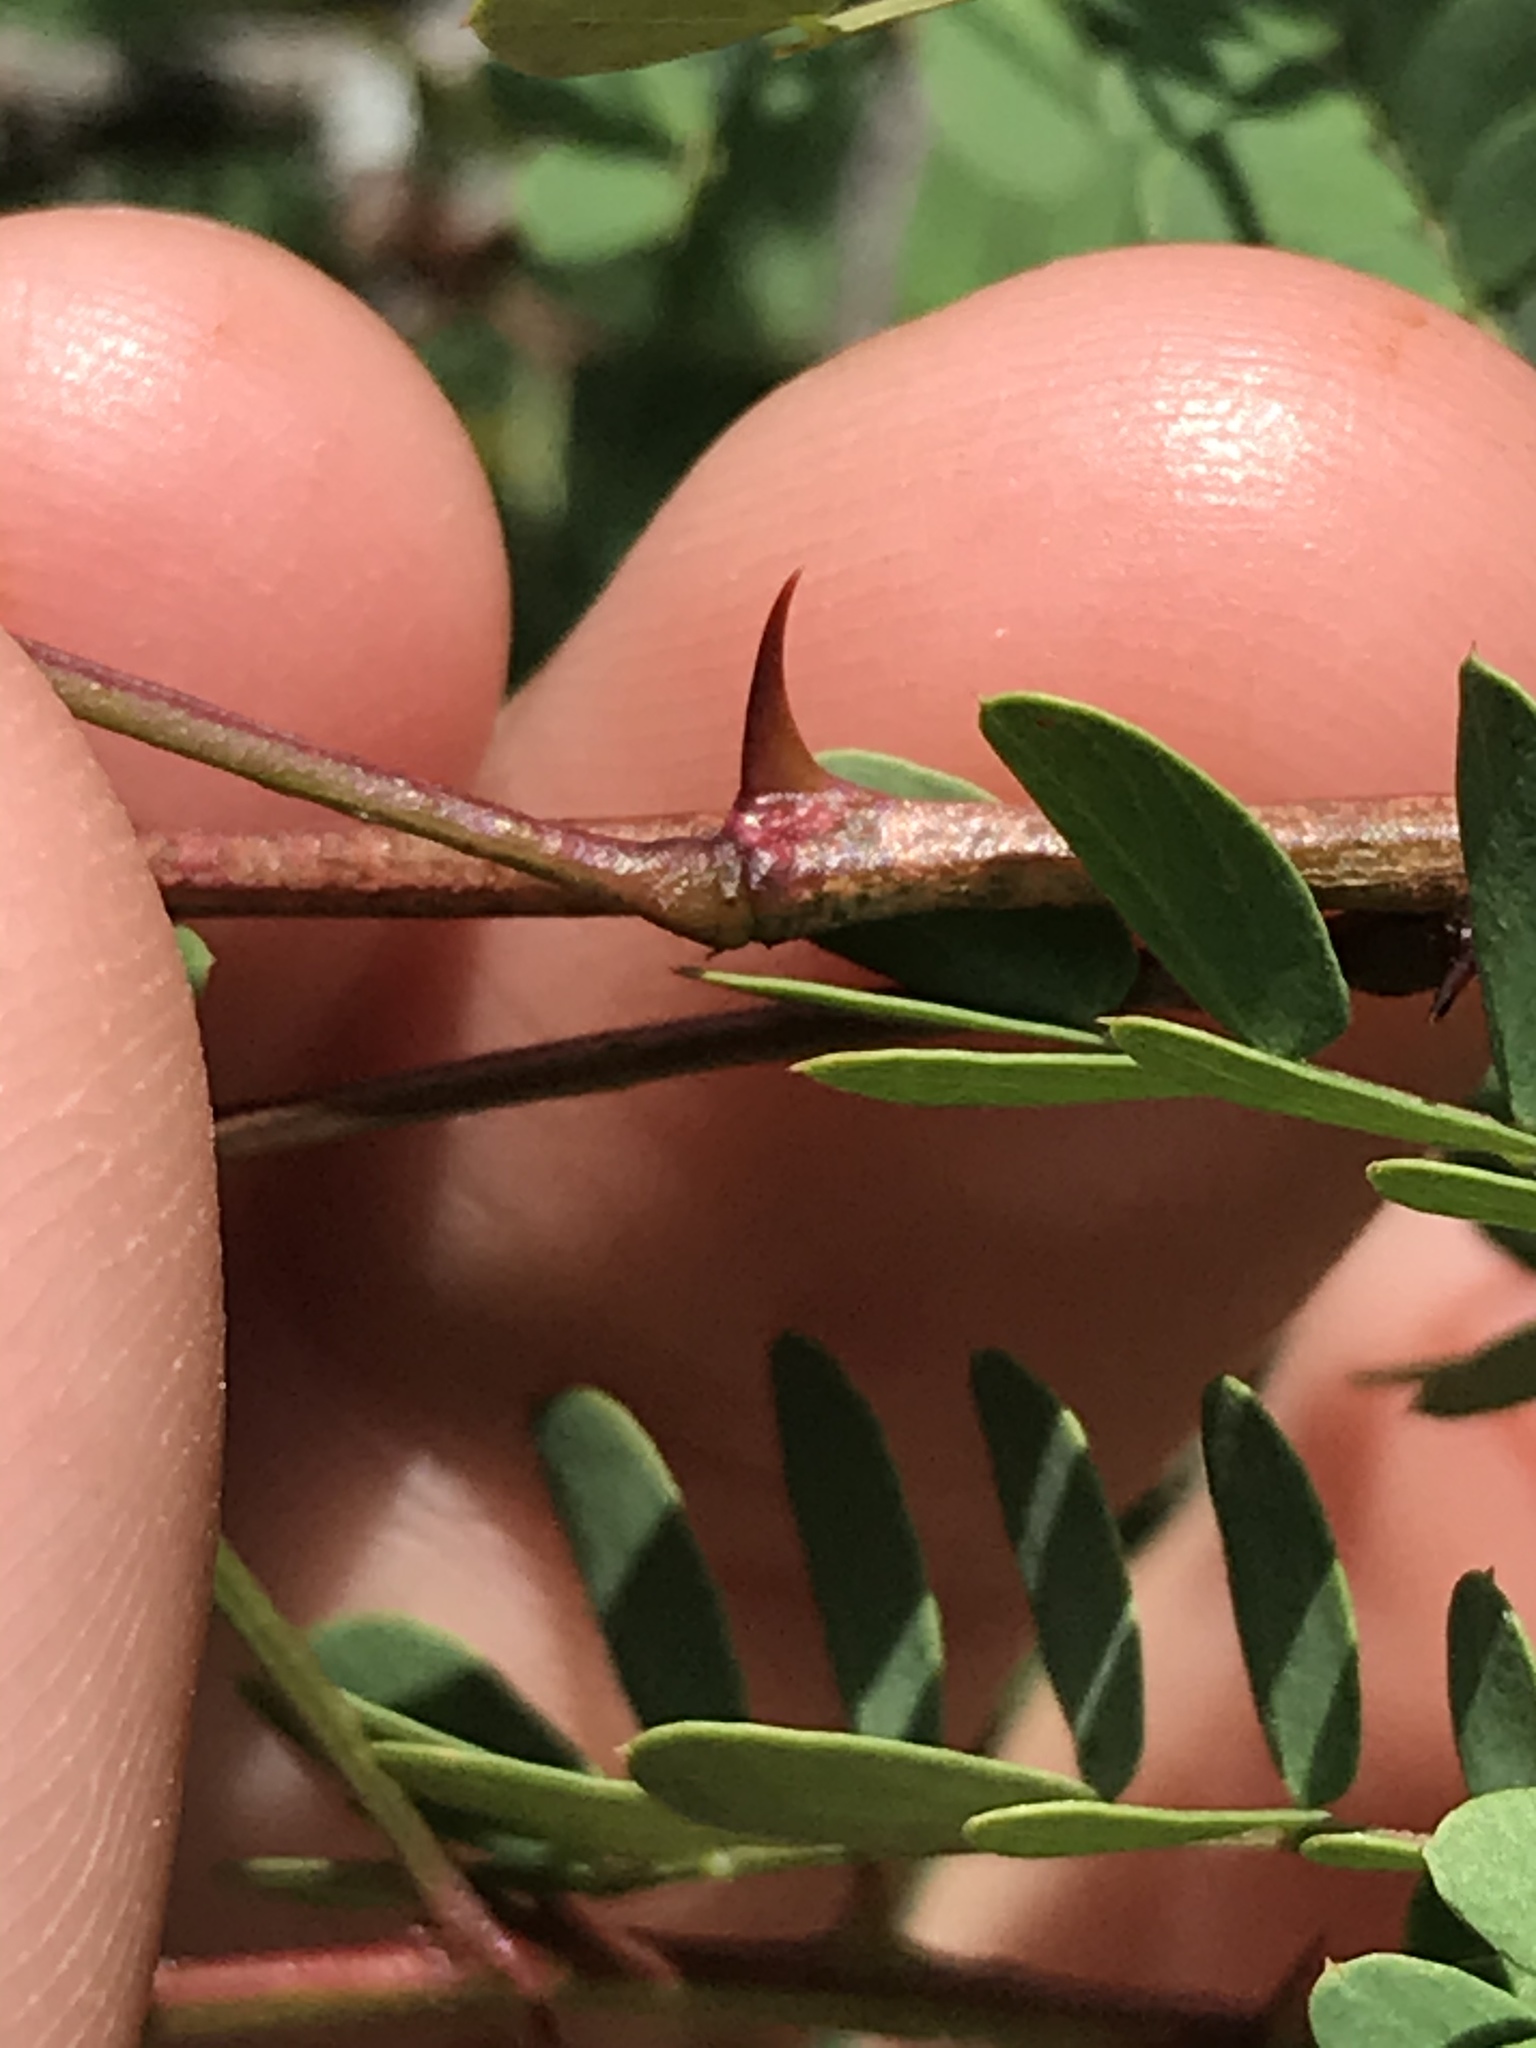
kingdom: Plantae
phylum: Tracheophyta
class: Magnoliopsida
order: Fabales
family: Fabaceae
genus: Senegalia
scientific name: Senegalia roemeriana
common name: Roemer's acacia
